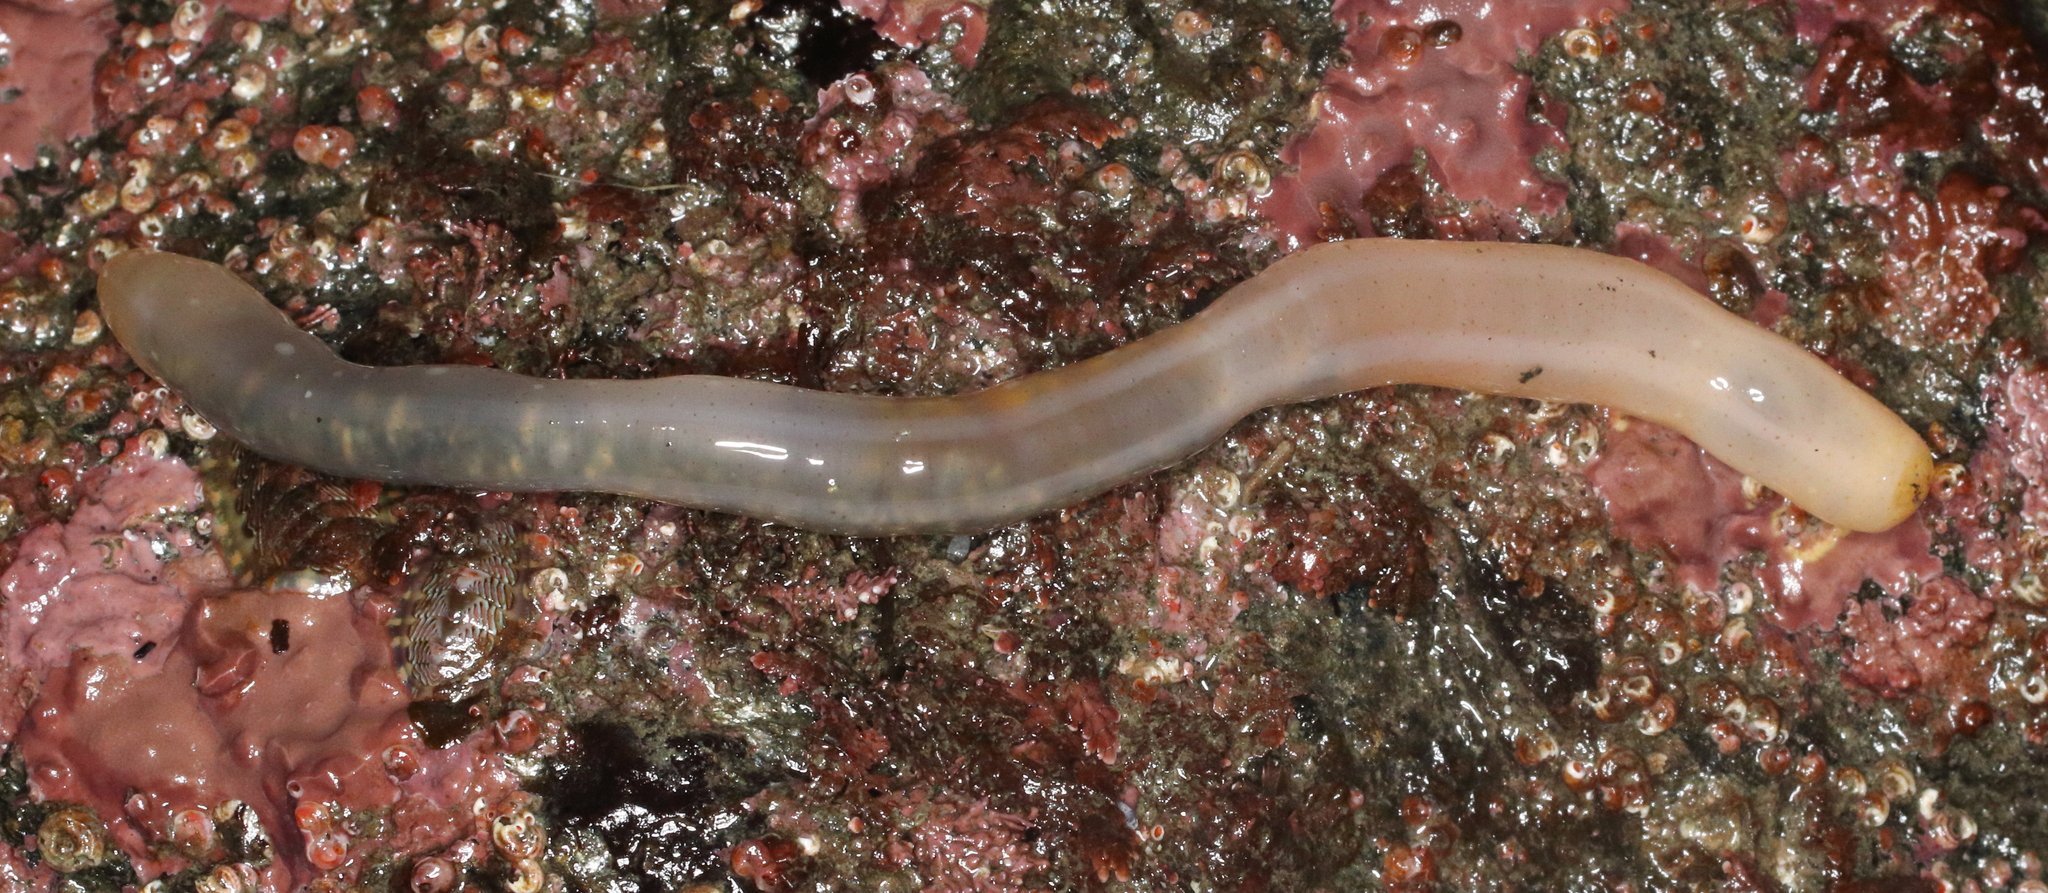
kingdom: Animalia
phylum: Echinodermata
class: Holothuroidea
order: Apodida
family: Chiridotidae
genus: Chiridota
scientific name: Chiridota discolor
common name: Jellybean footless sea cucumber
